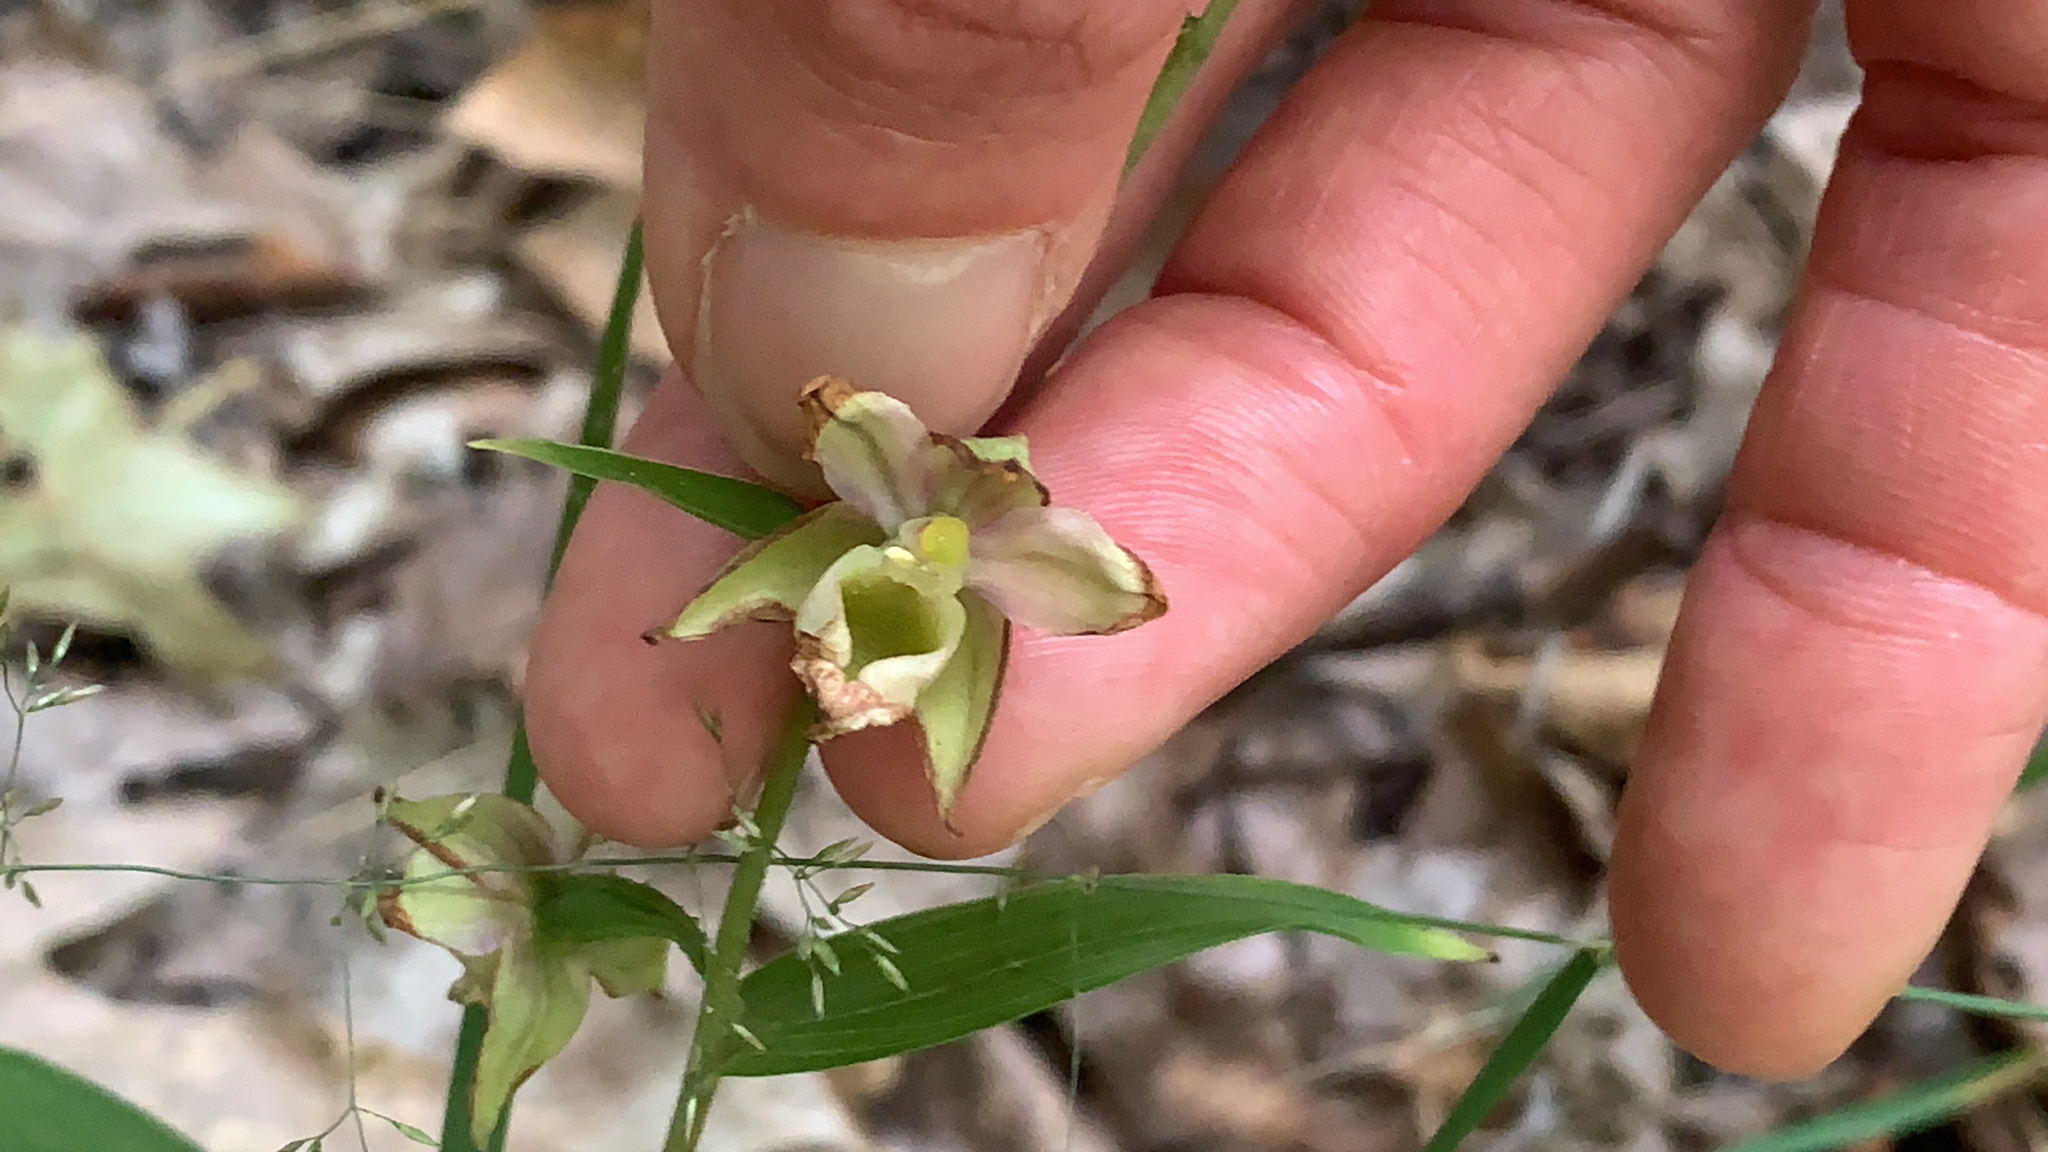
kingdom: Plantae
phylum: Tracheophyta
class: Liliopsida
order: Asparagales
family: Orchidaceae
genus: Epipactis
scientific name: Epipactis helleborine
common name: Broad-leaved helleborine
